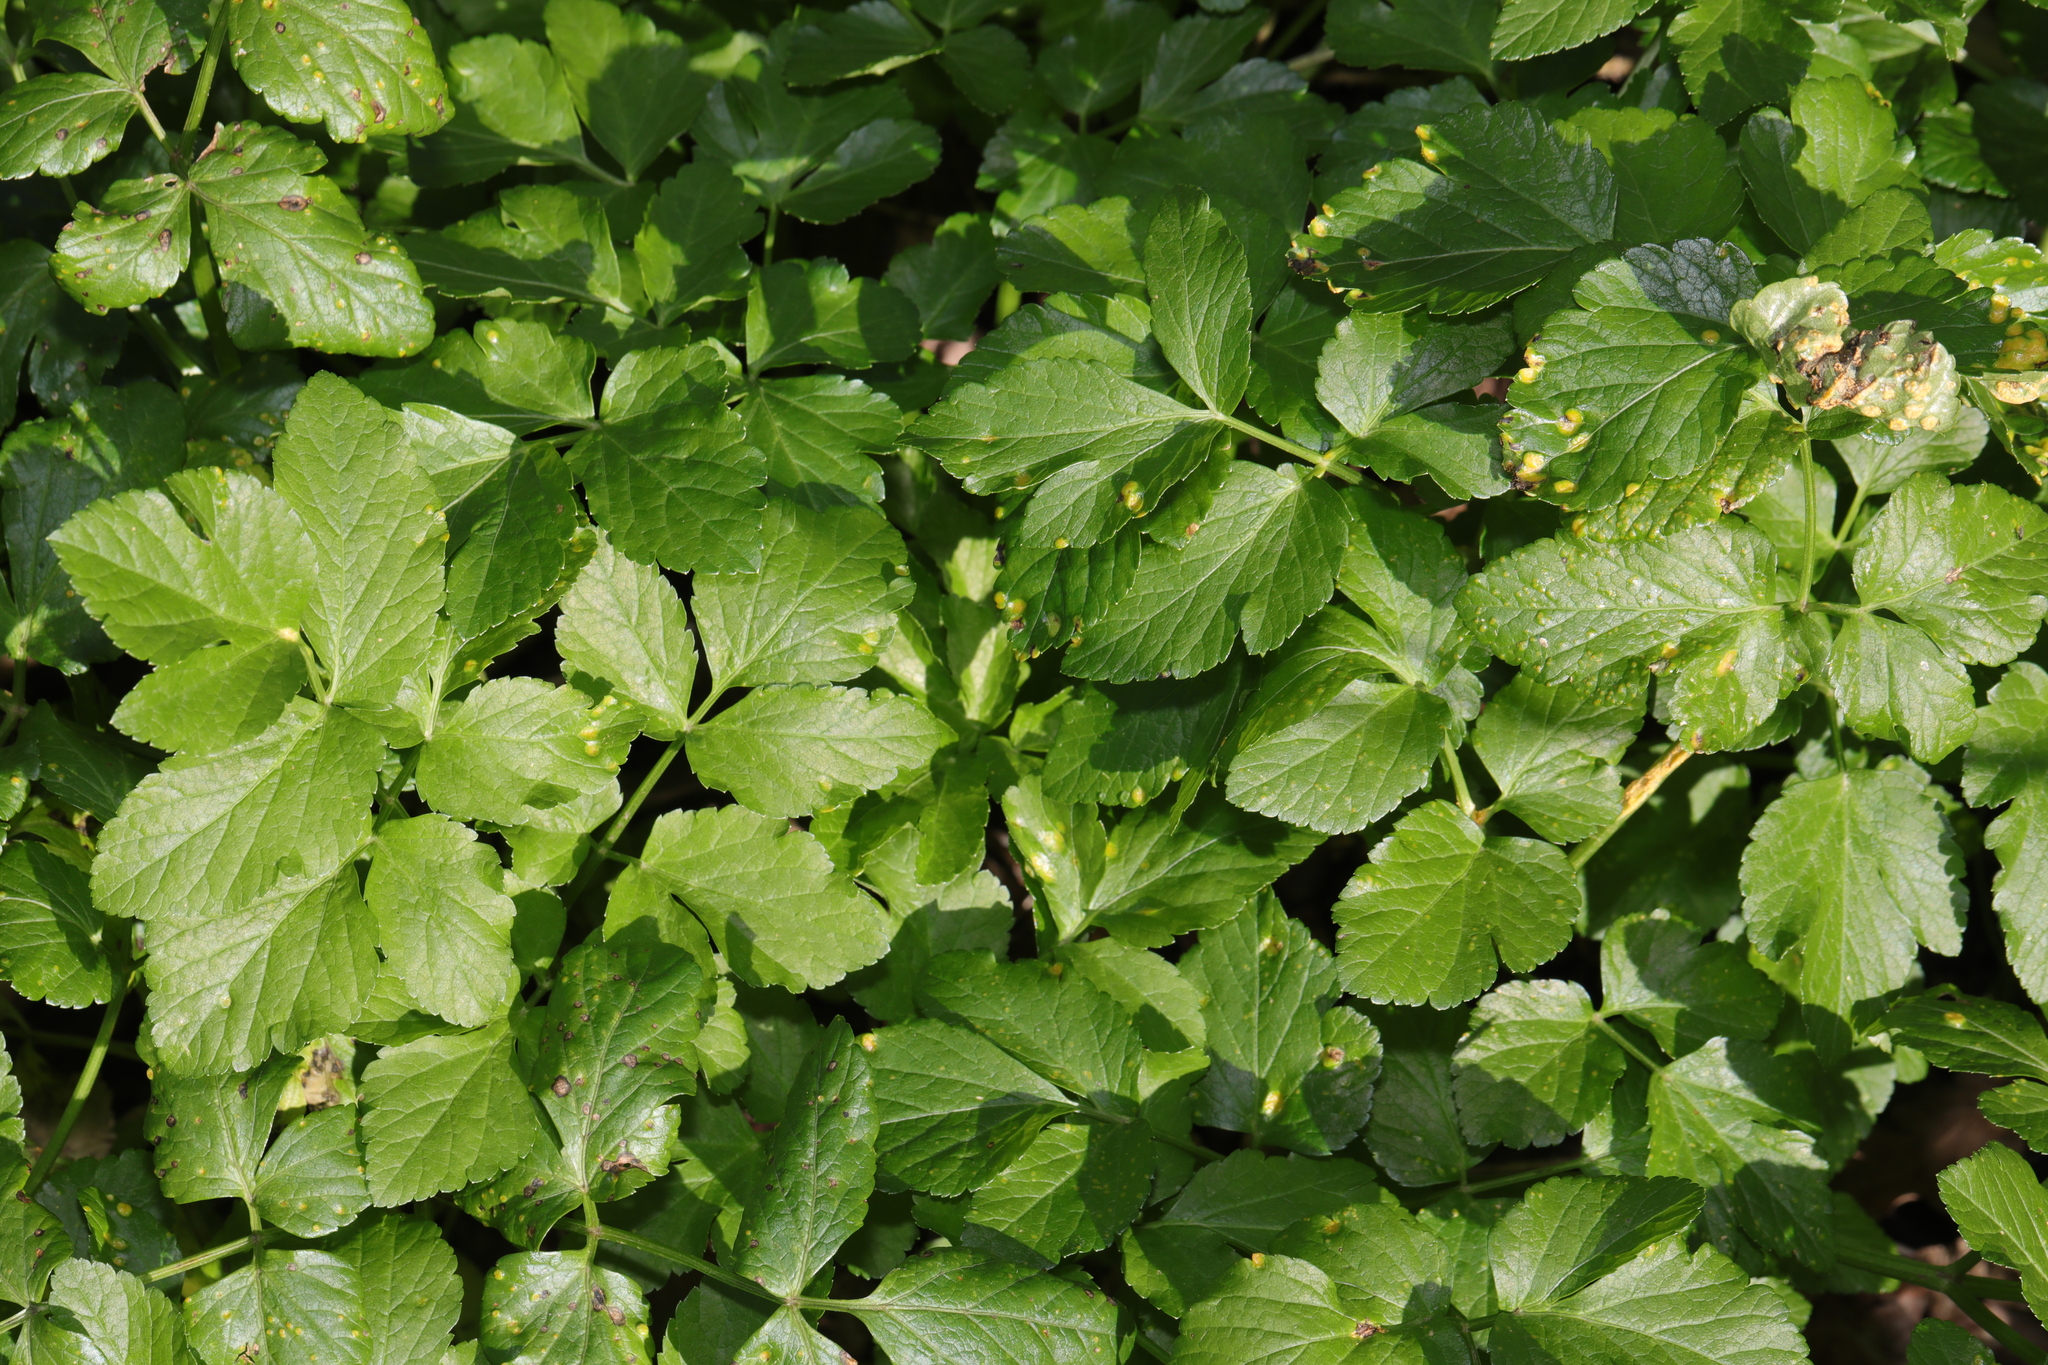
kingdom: Plantae
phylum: Tracheophyta
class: Magnoliopsida
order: Apiales
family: Apiaceae
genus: Smyrnium
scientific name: Smyrnium olusatrum
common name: Alexanders
